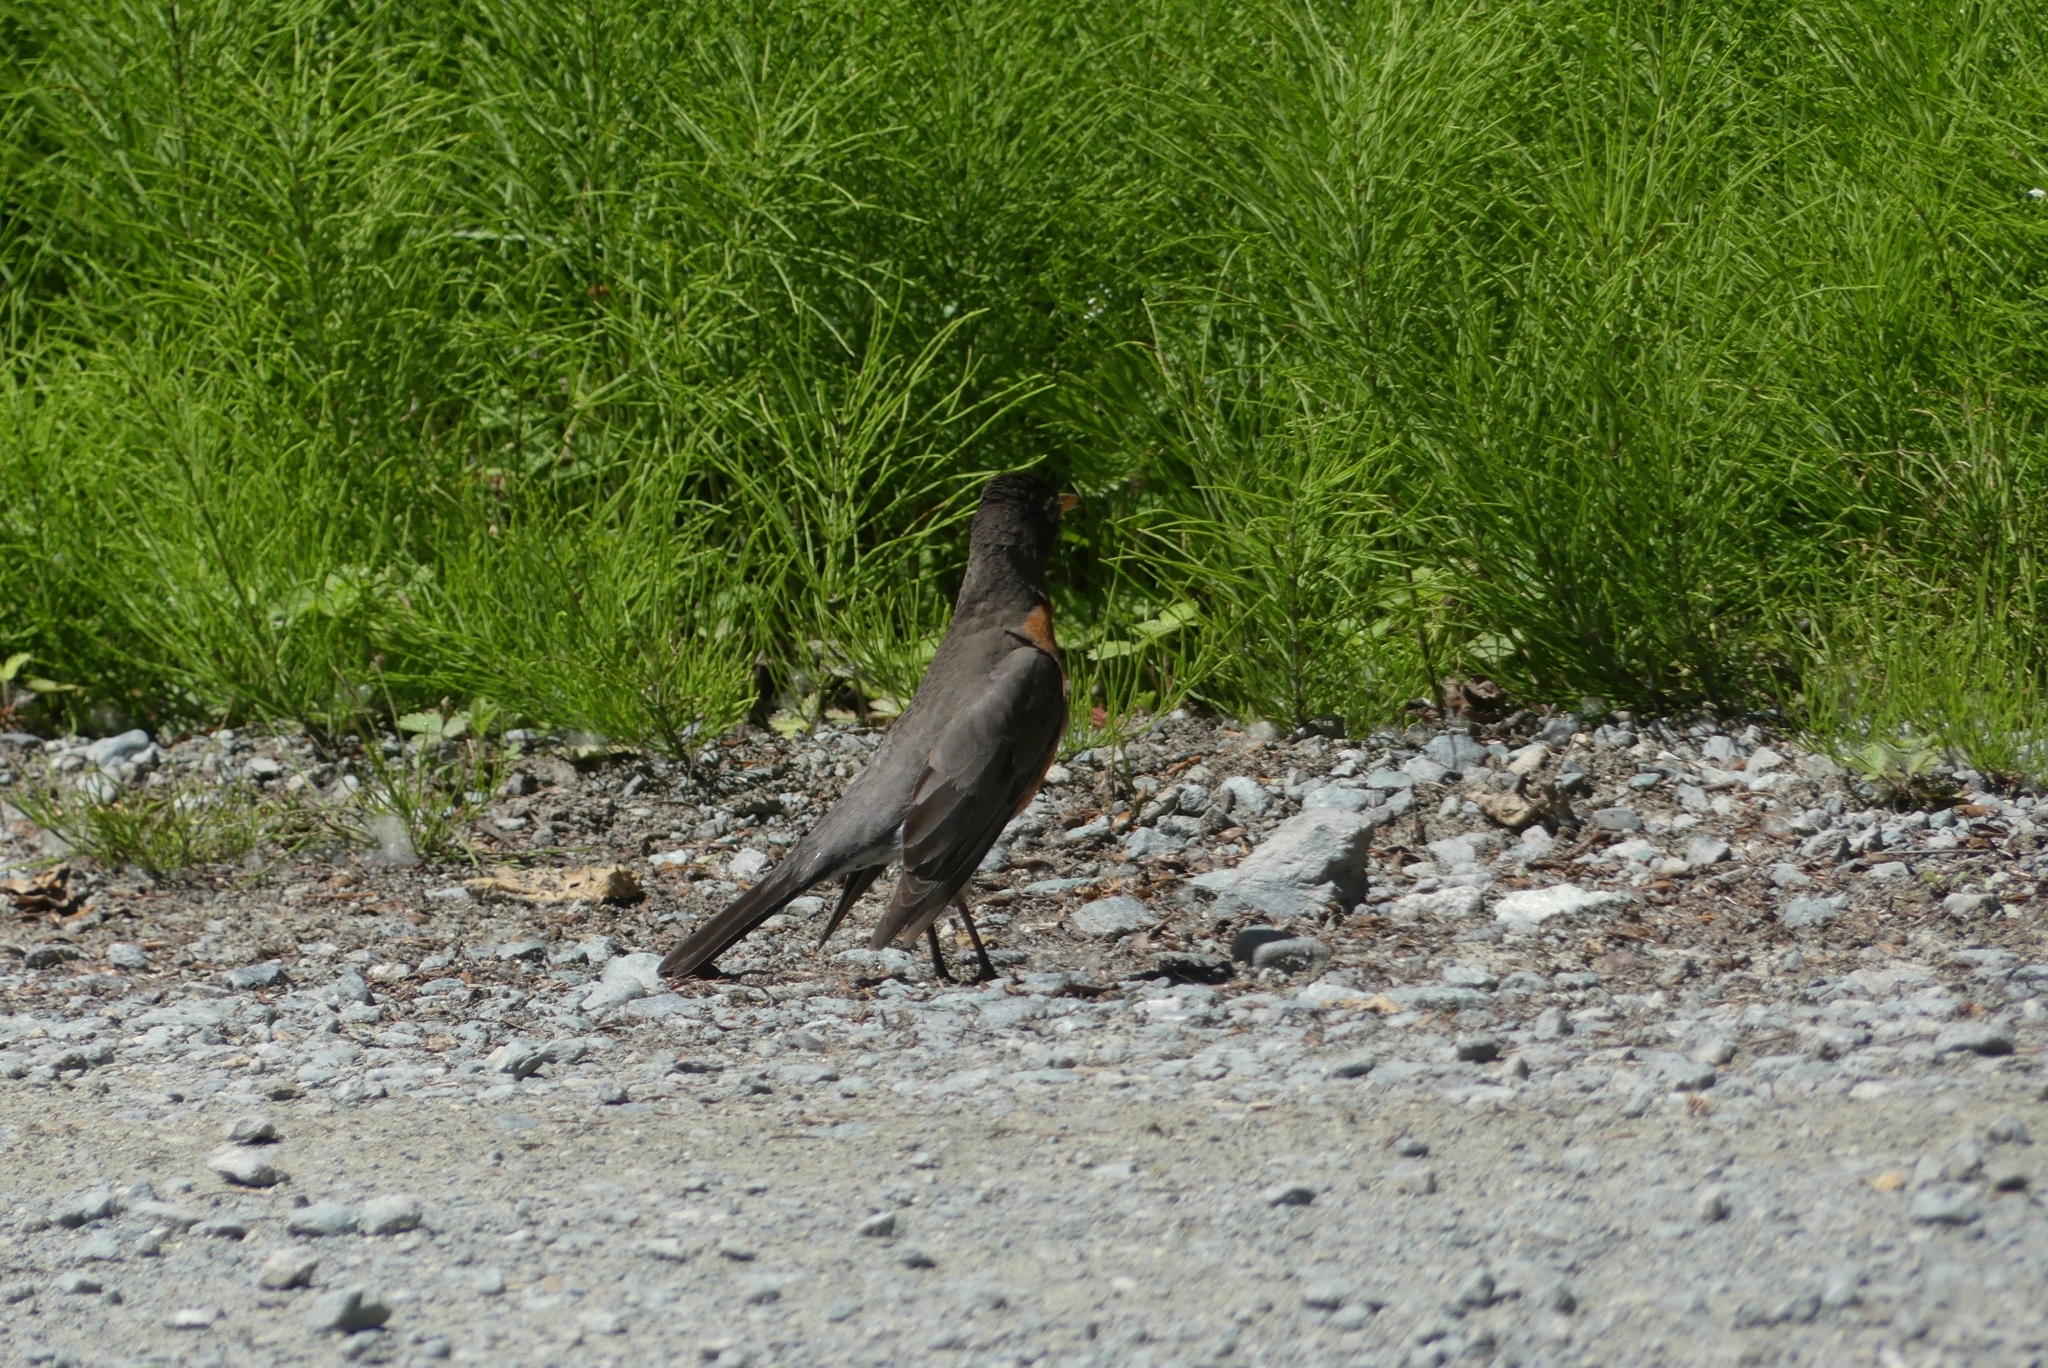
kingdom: Animalia
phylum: Chordata
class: Aves
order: Passeriformes
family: Turdidae
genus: Turdus
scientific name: Turdus migratorius
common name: American robin
